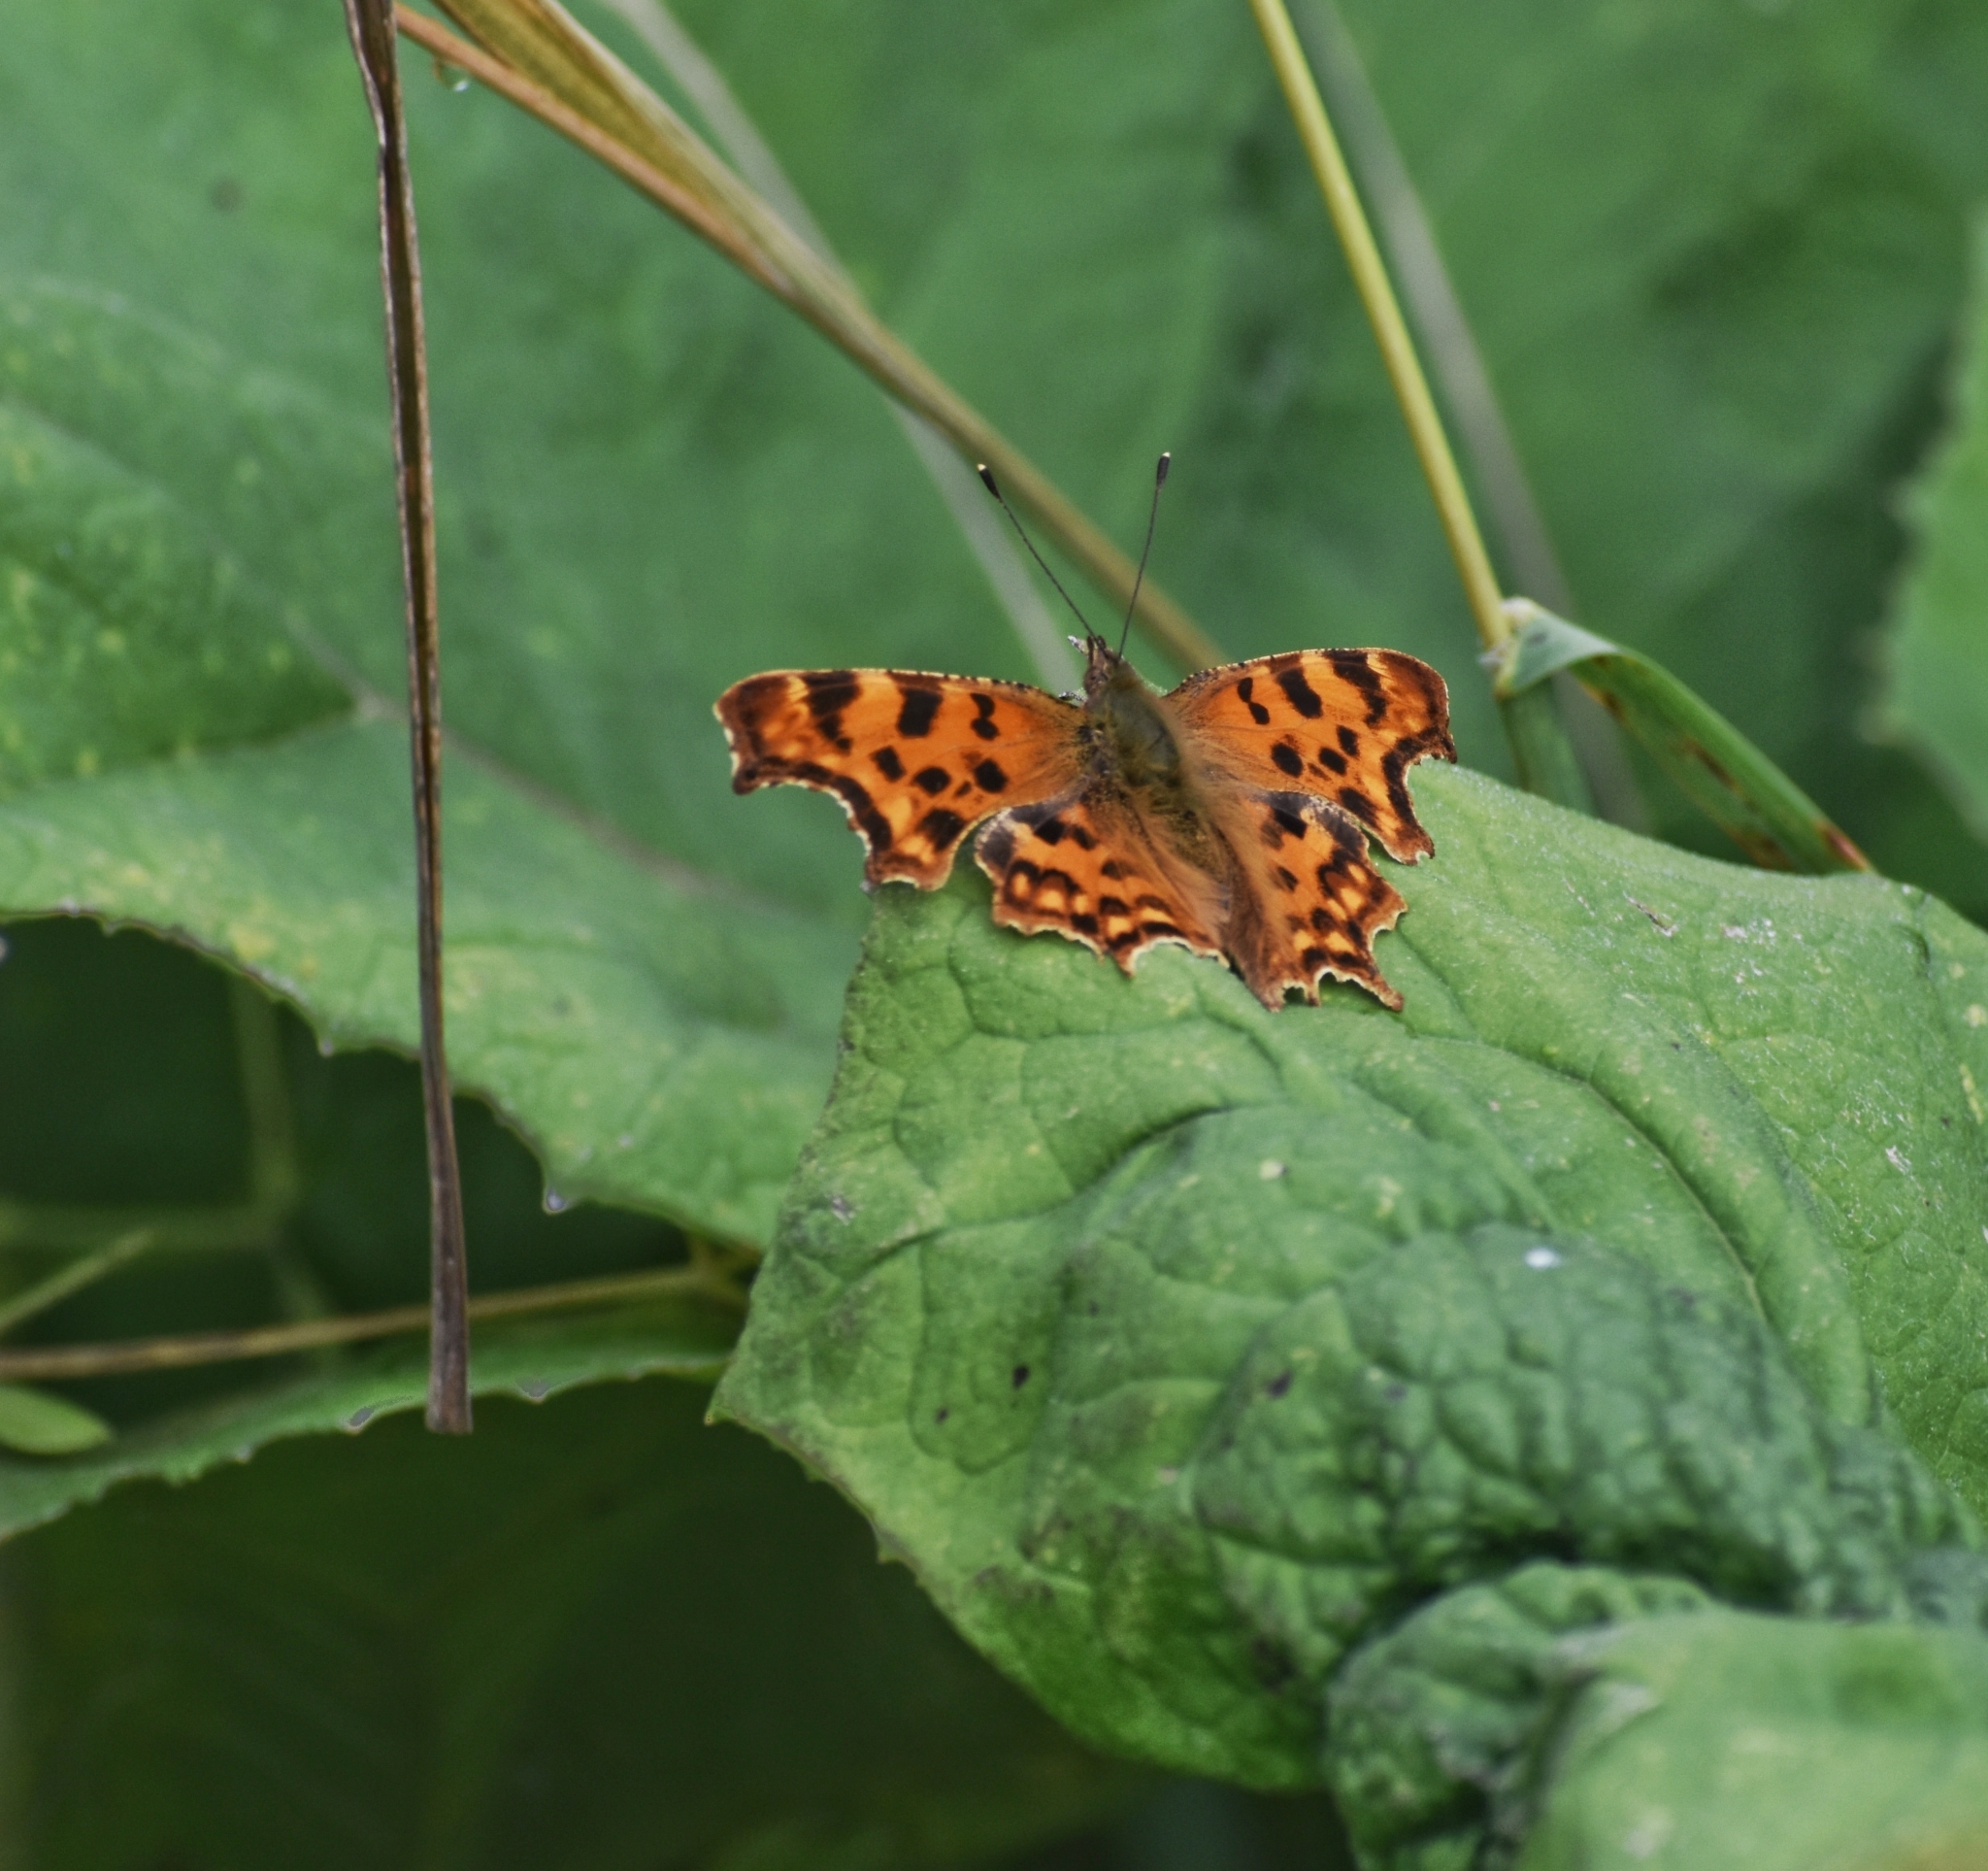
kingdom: Animalia
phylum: Arthropoda
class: Insecta
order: Lepidoptera
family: Nymphalidae
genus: Polygonia
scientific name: Polygonia c-album
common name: Comma
